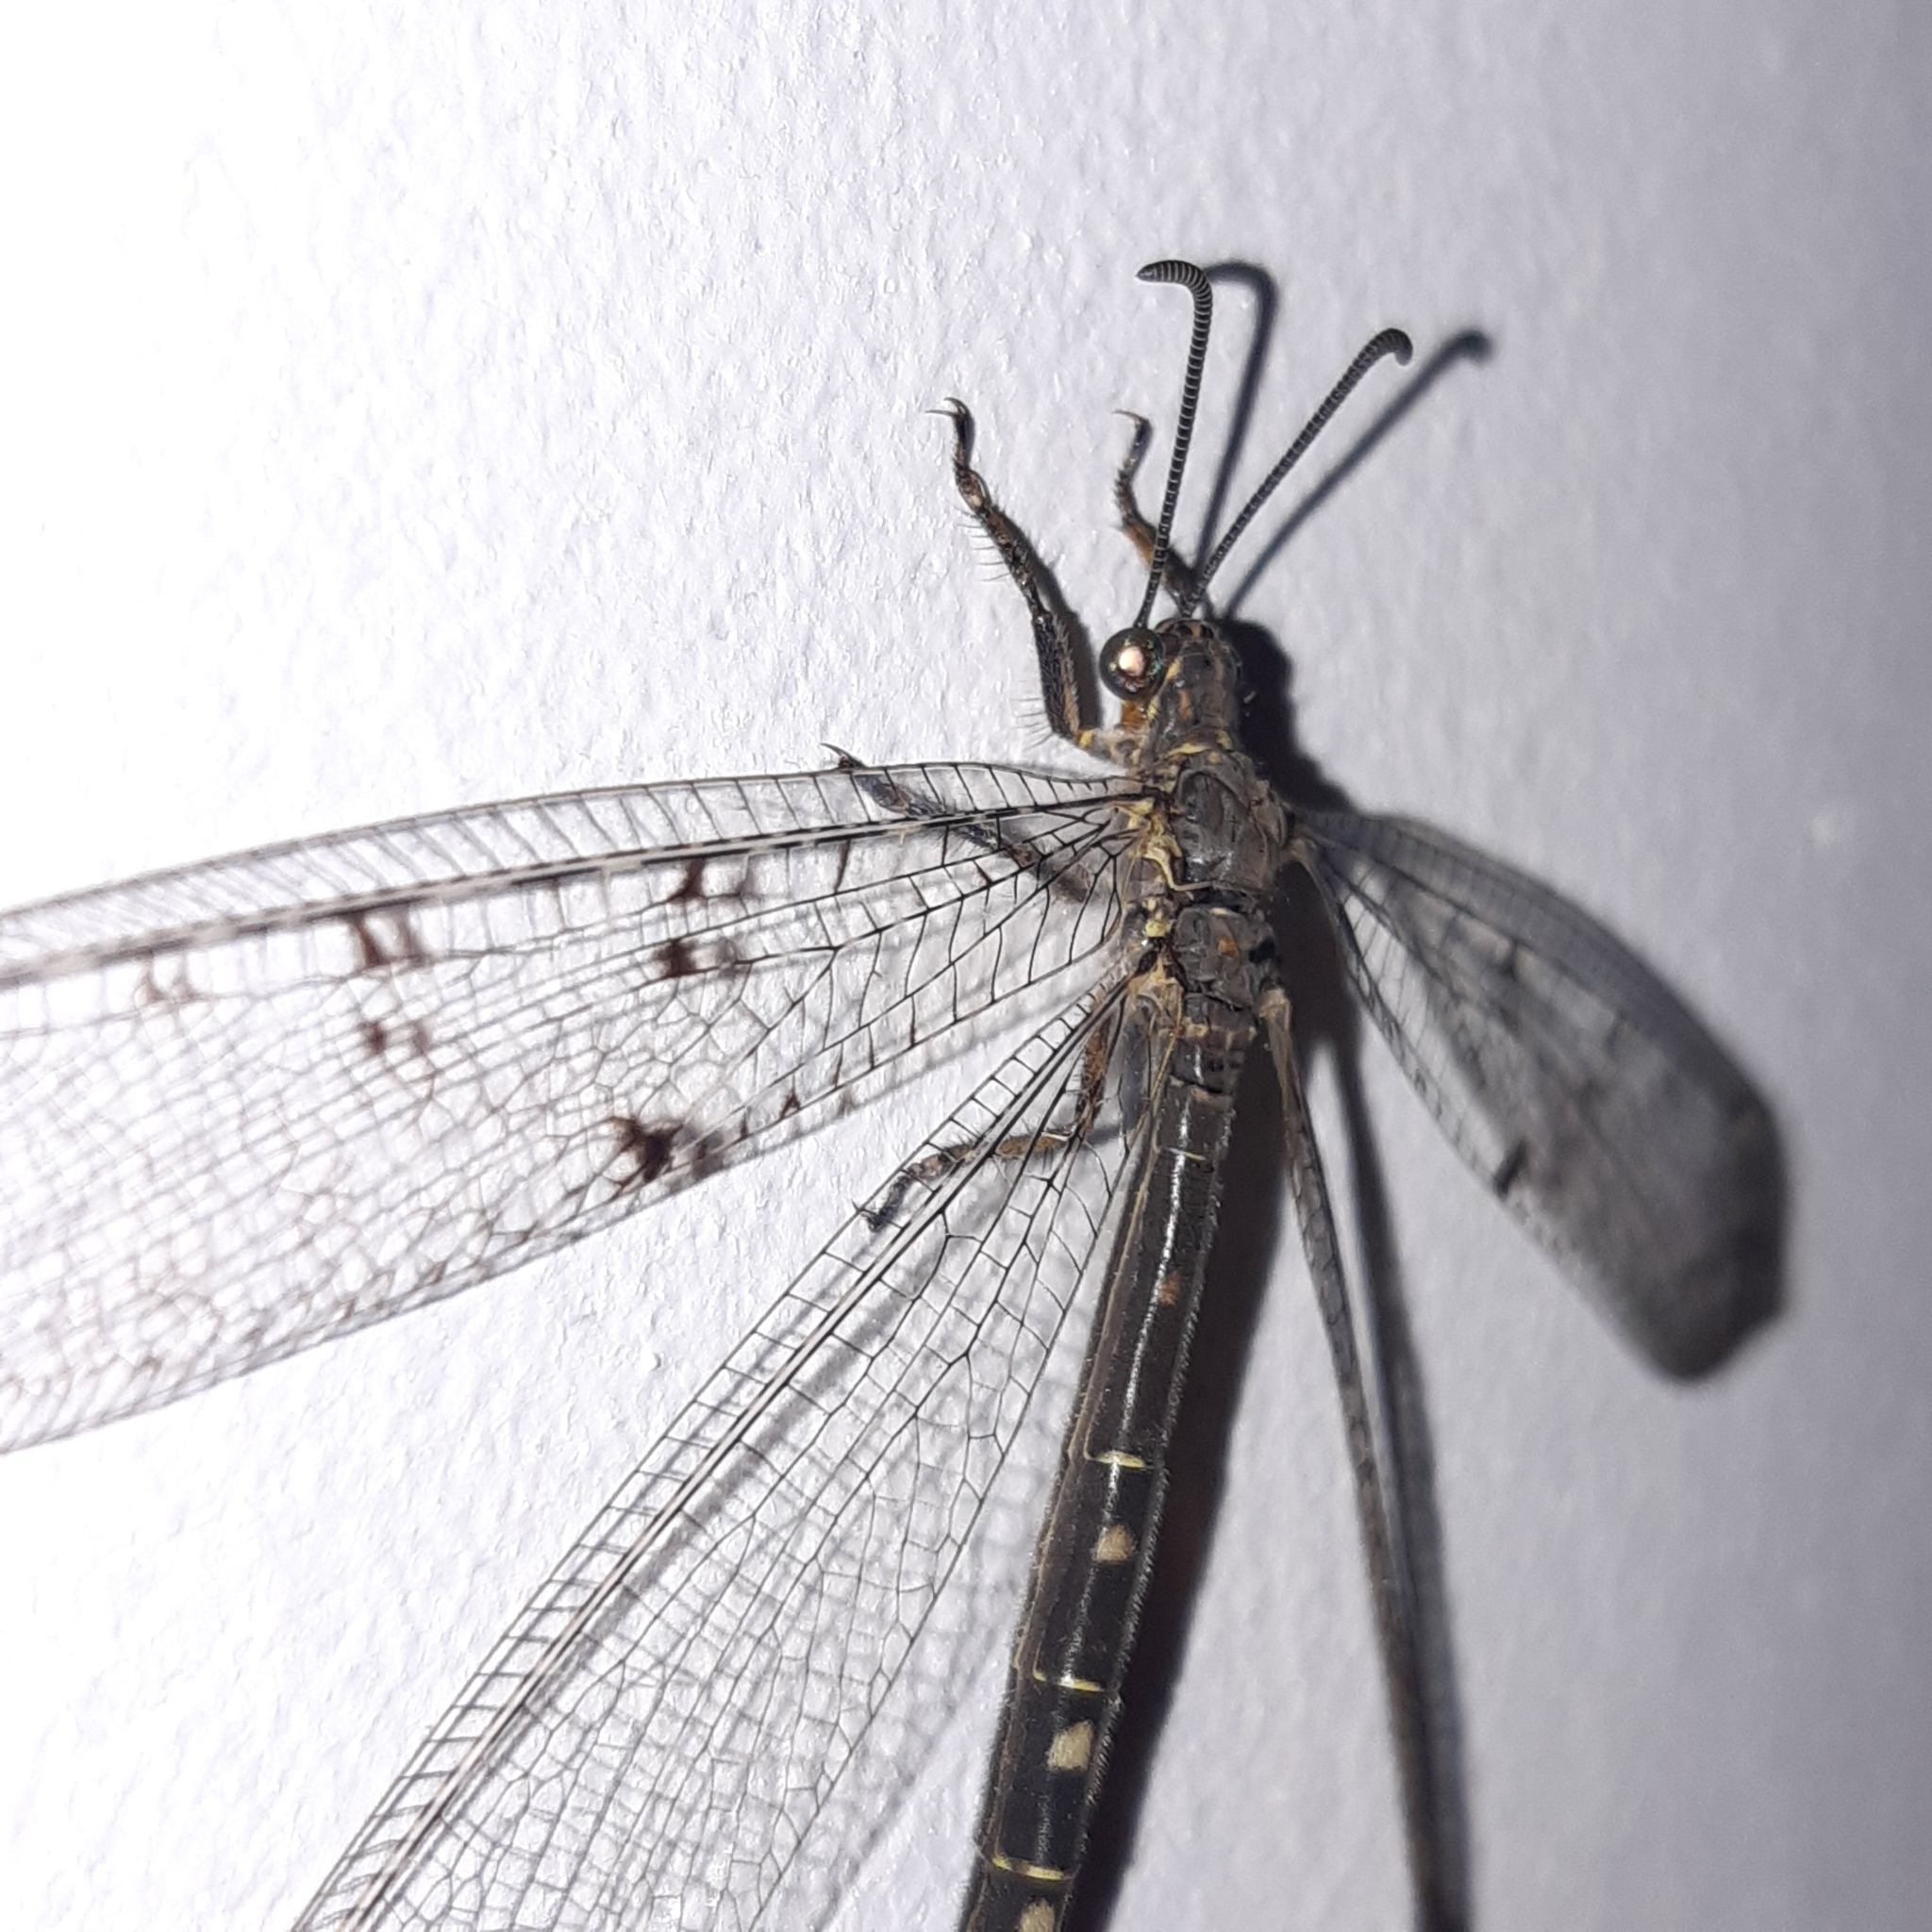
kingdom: Animalia
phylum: Arthropoda
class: Insecta
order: Neuroptera
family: Myrmeleontidae
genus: Distoleon
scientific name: Distoleon tetragrammicus
